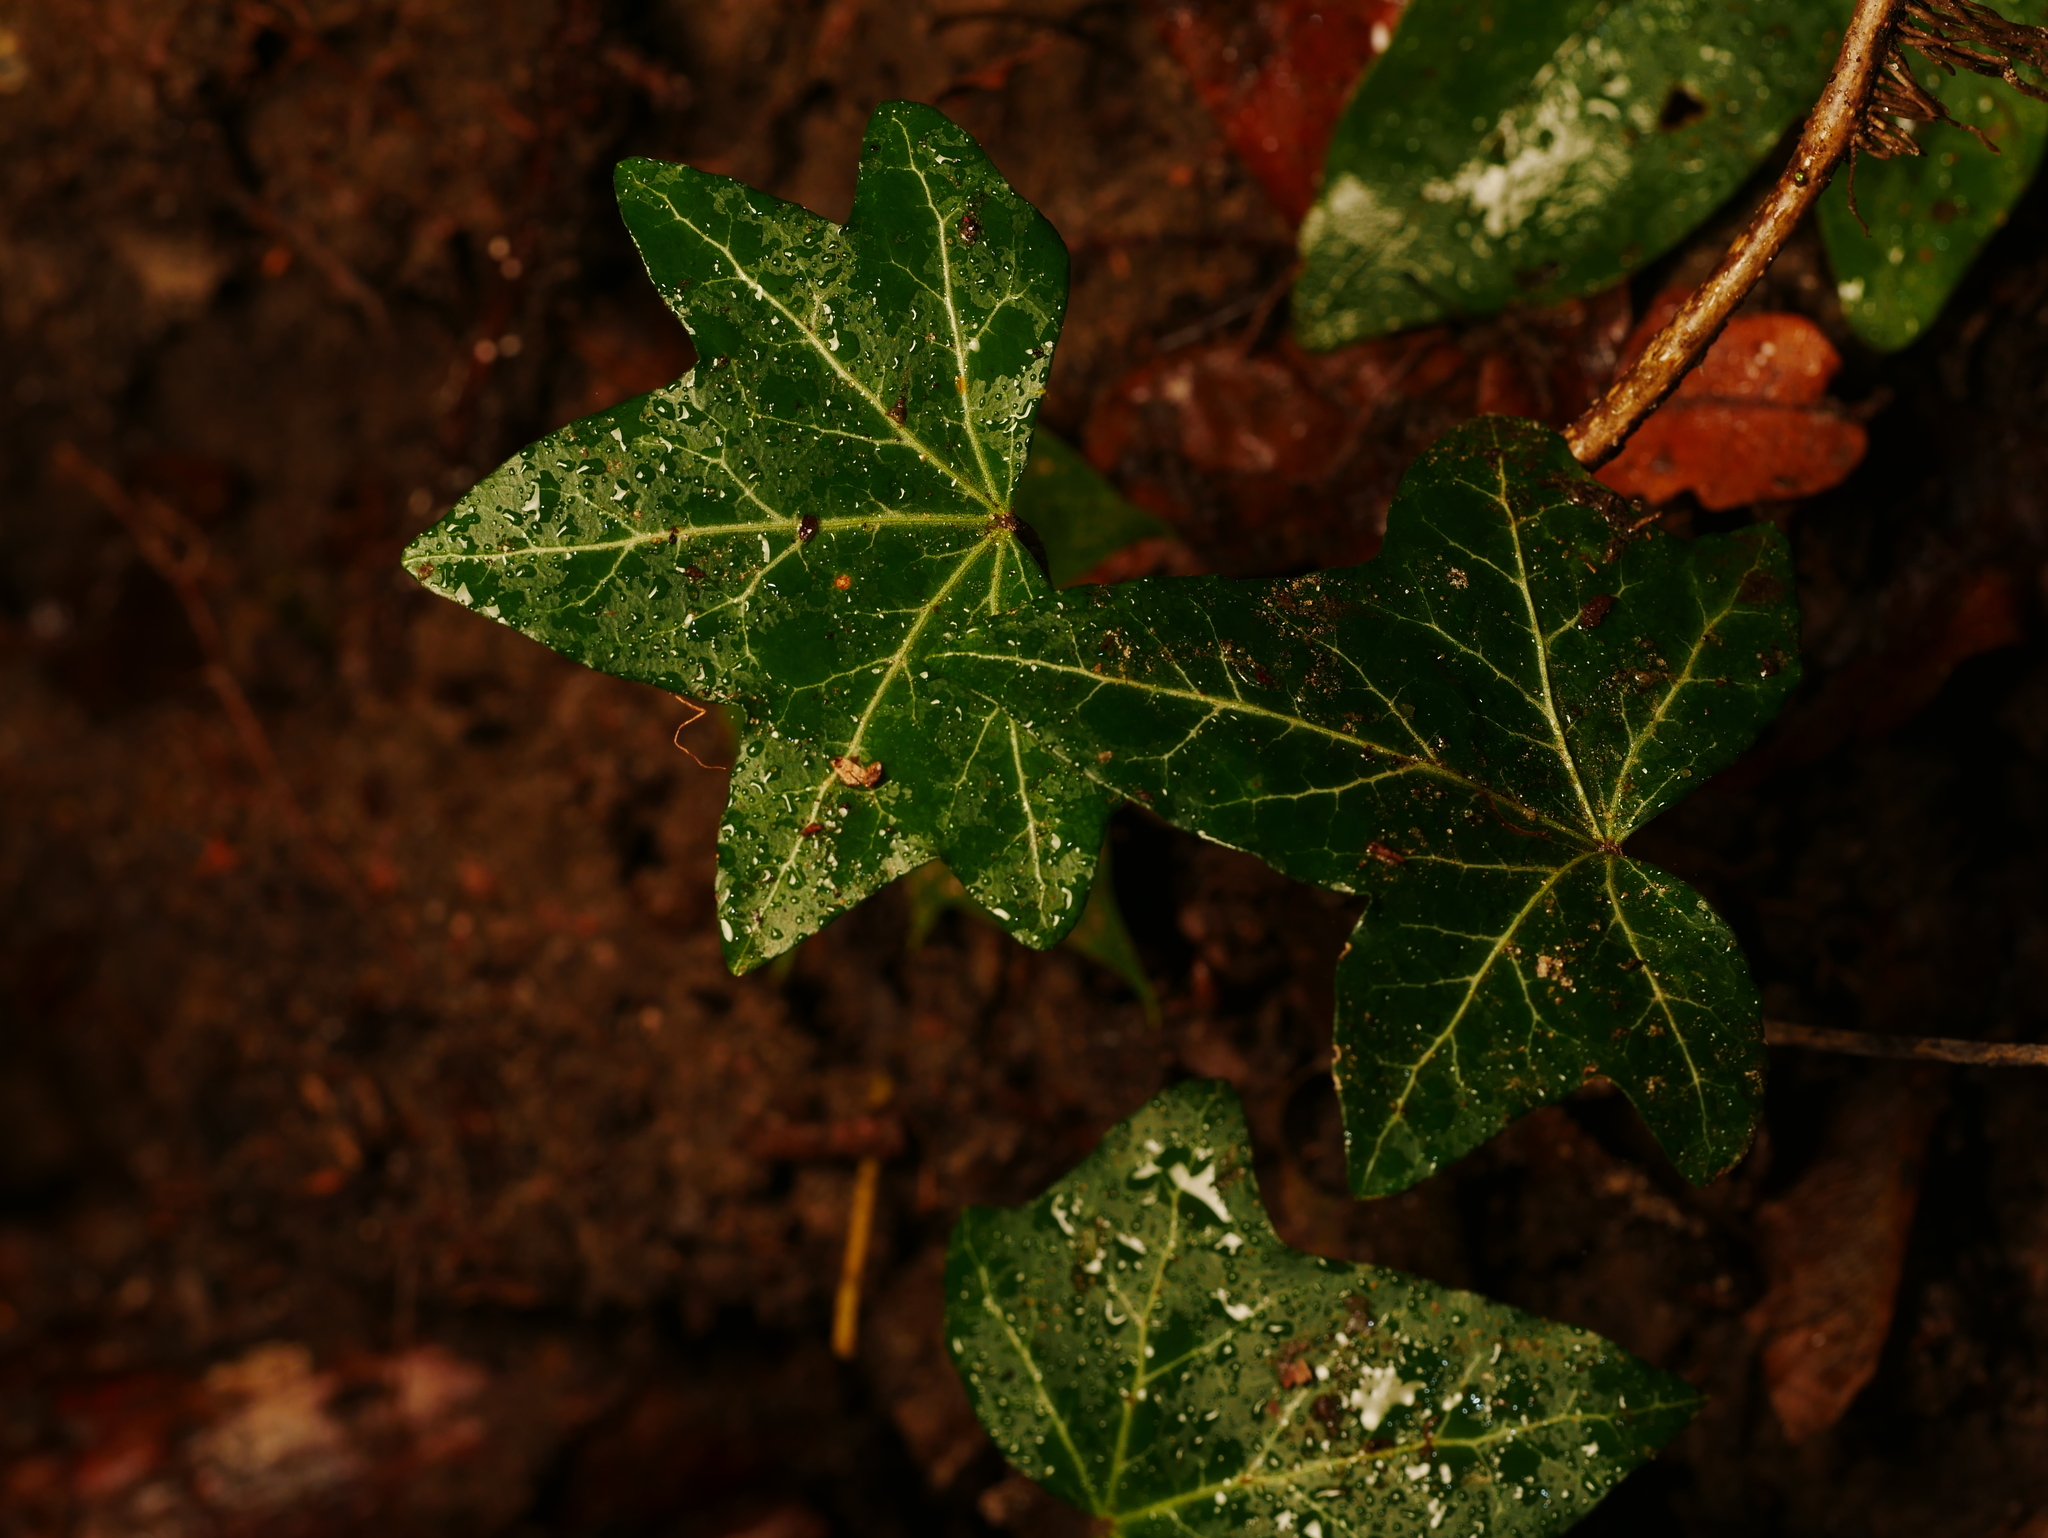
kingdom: Plantae
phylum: Tracheophyta
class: Magnoliopsida
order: Apiales
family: Araliaceae
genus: Hedera
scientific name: Hedera helix
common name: Ivy
